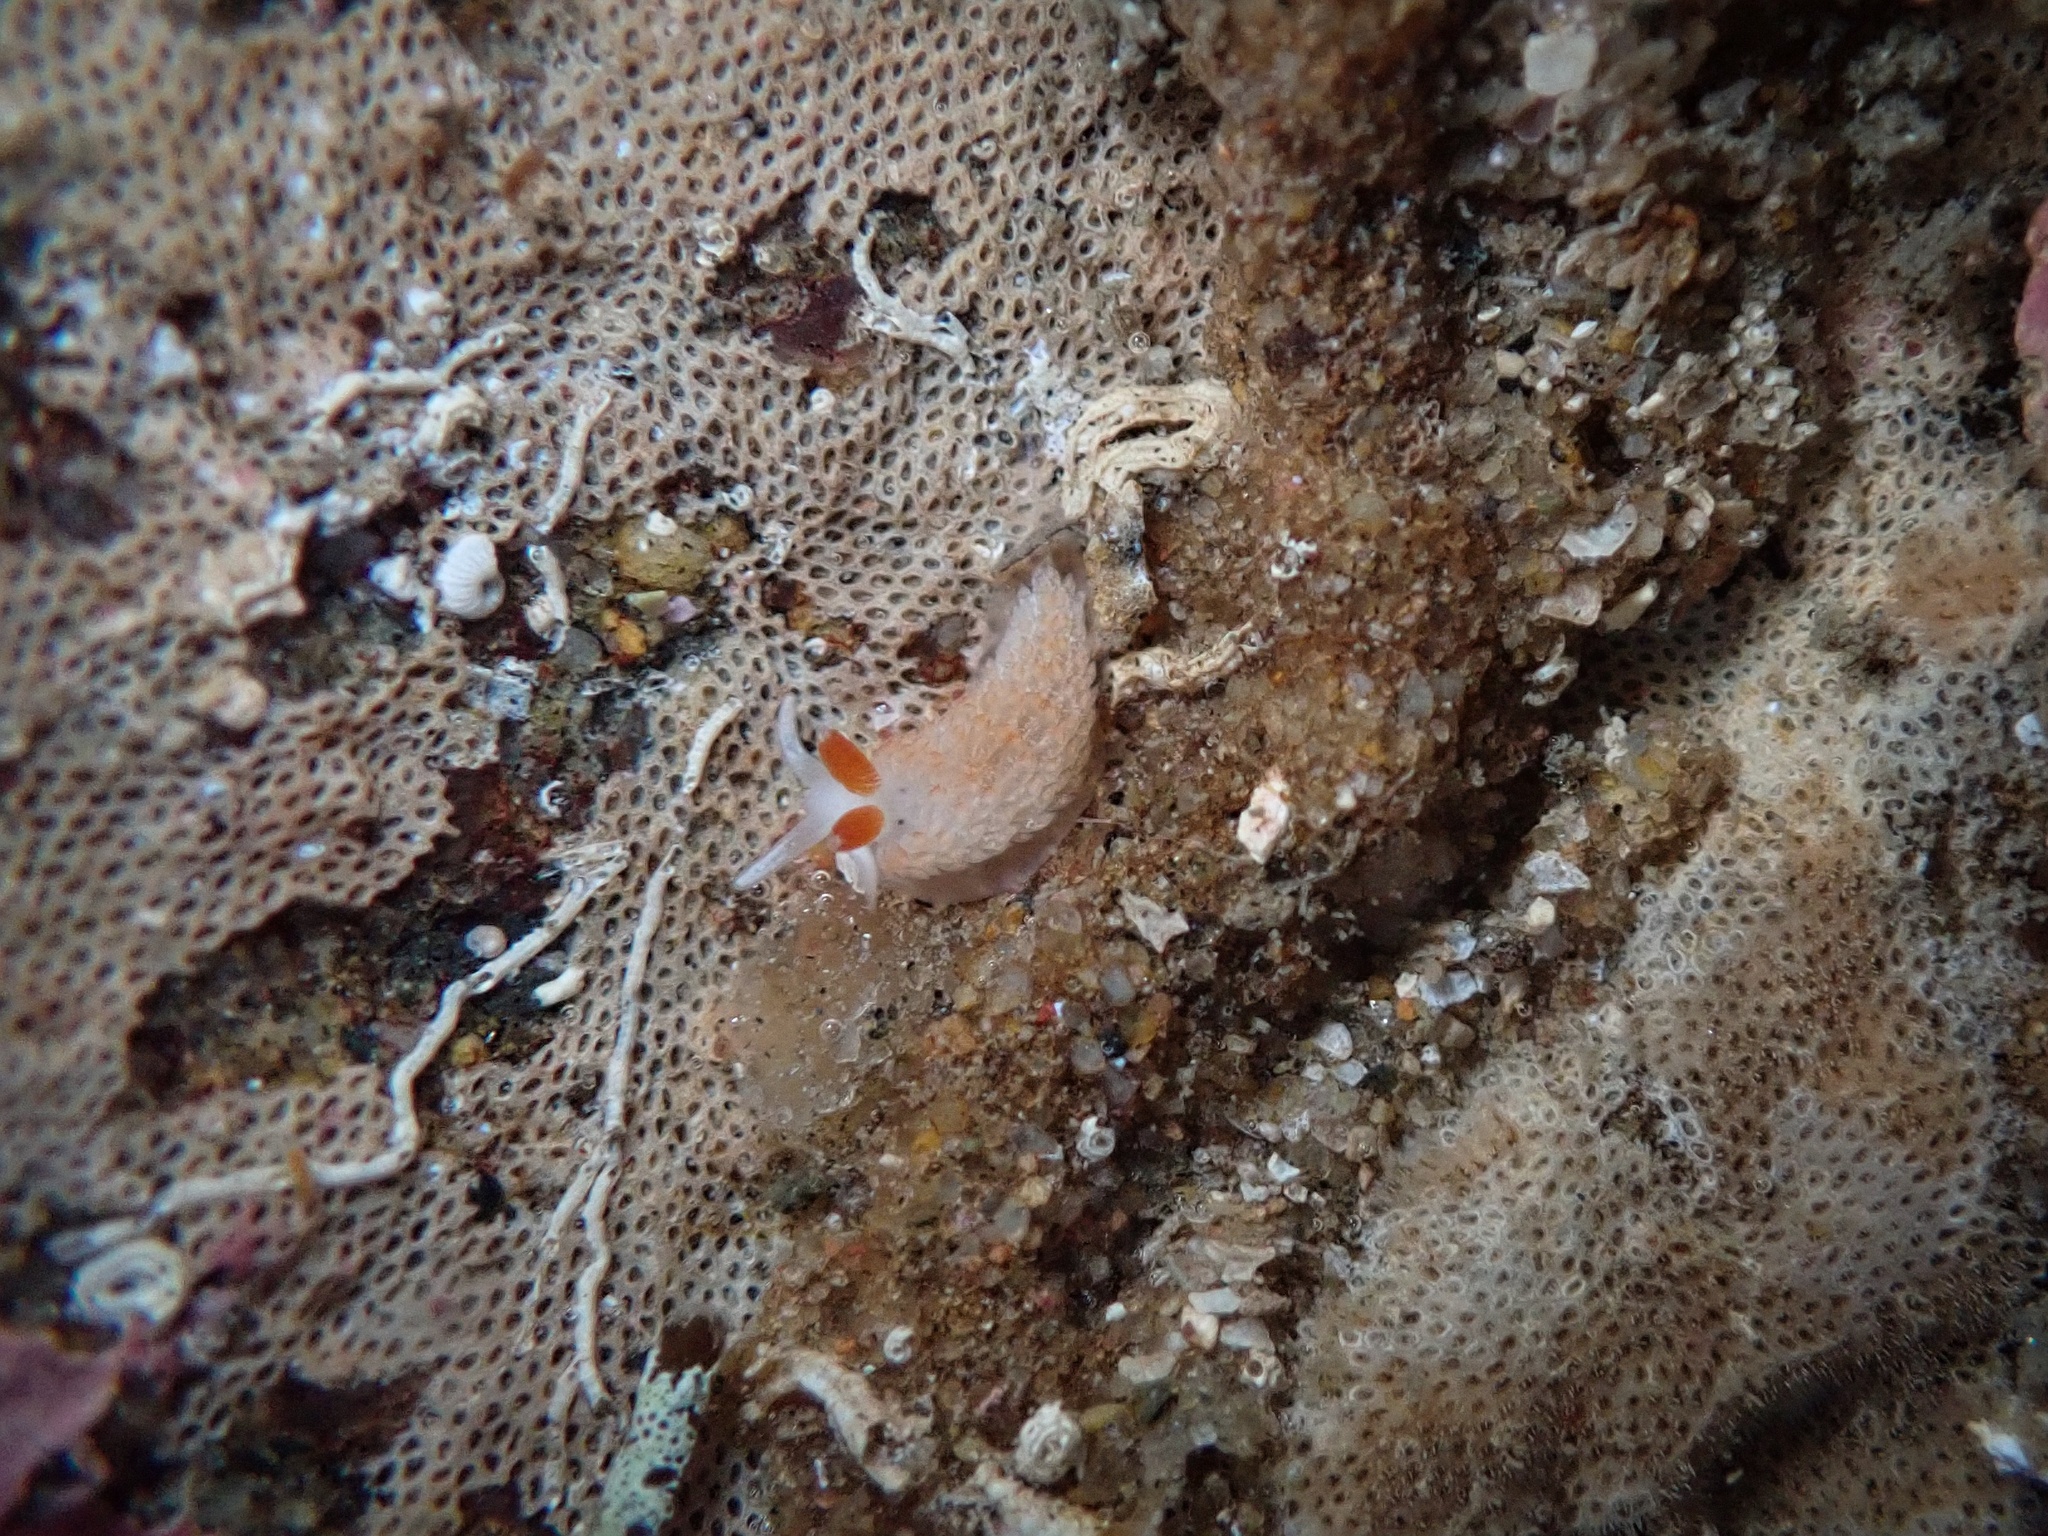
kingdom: Animalia
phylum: Mollusca
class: Gastropoda
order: Nudibranchia
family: Aeolidiidae
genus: Anteaeolidiella
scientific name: Anteaeolidiella oliviae
